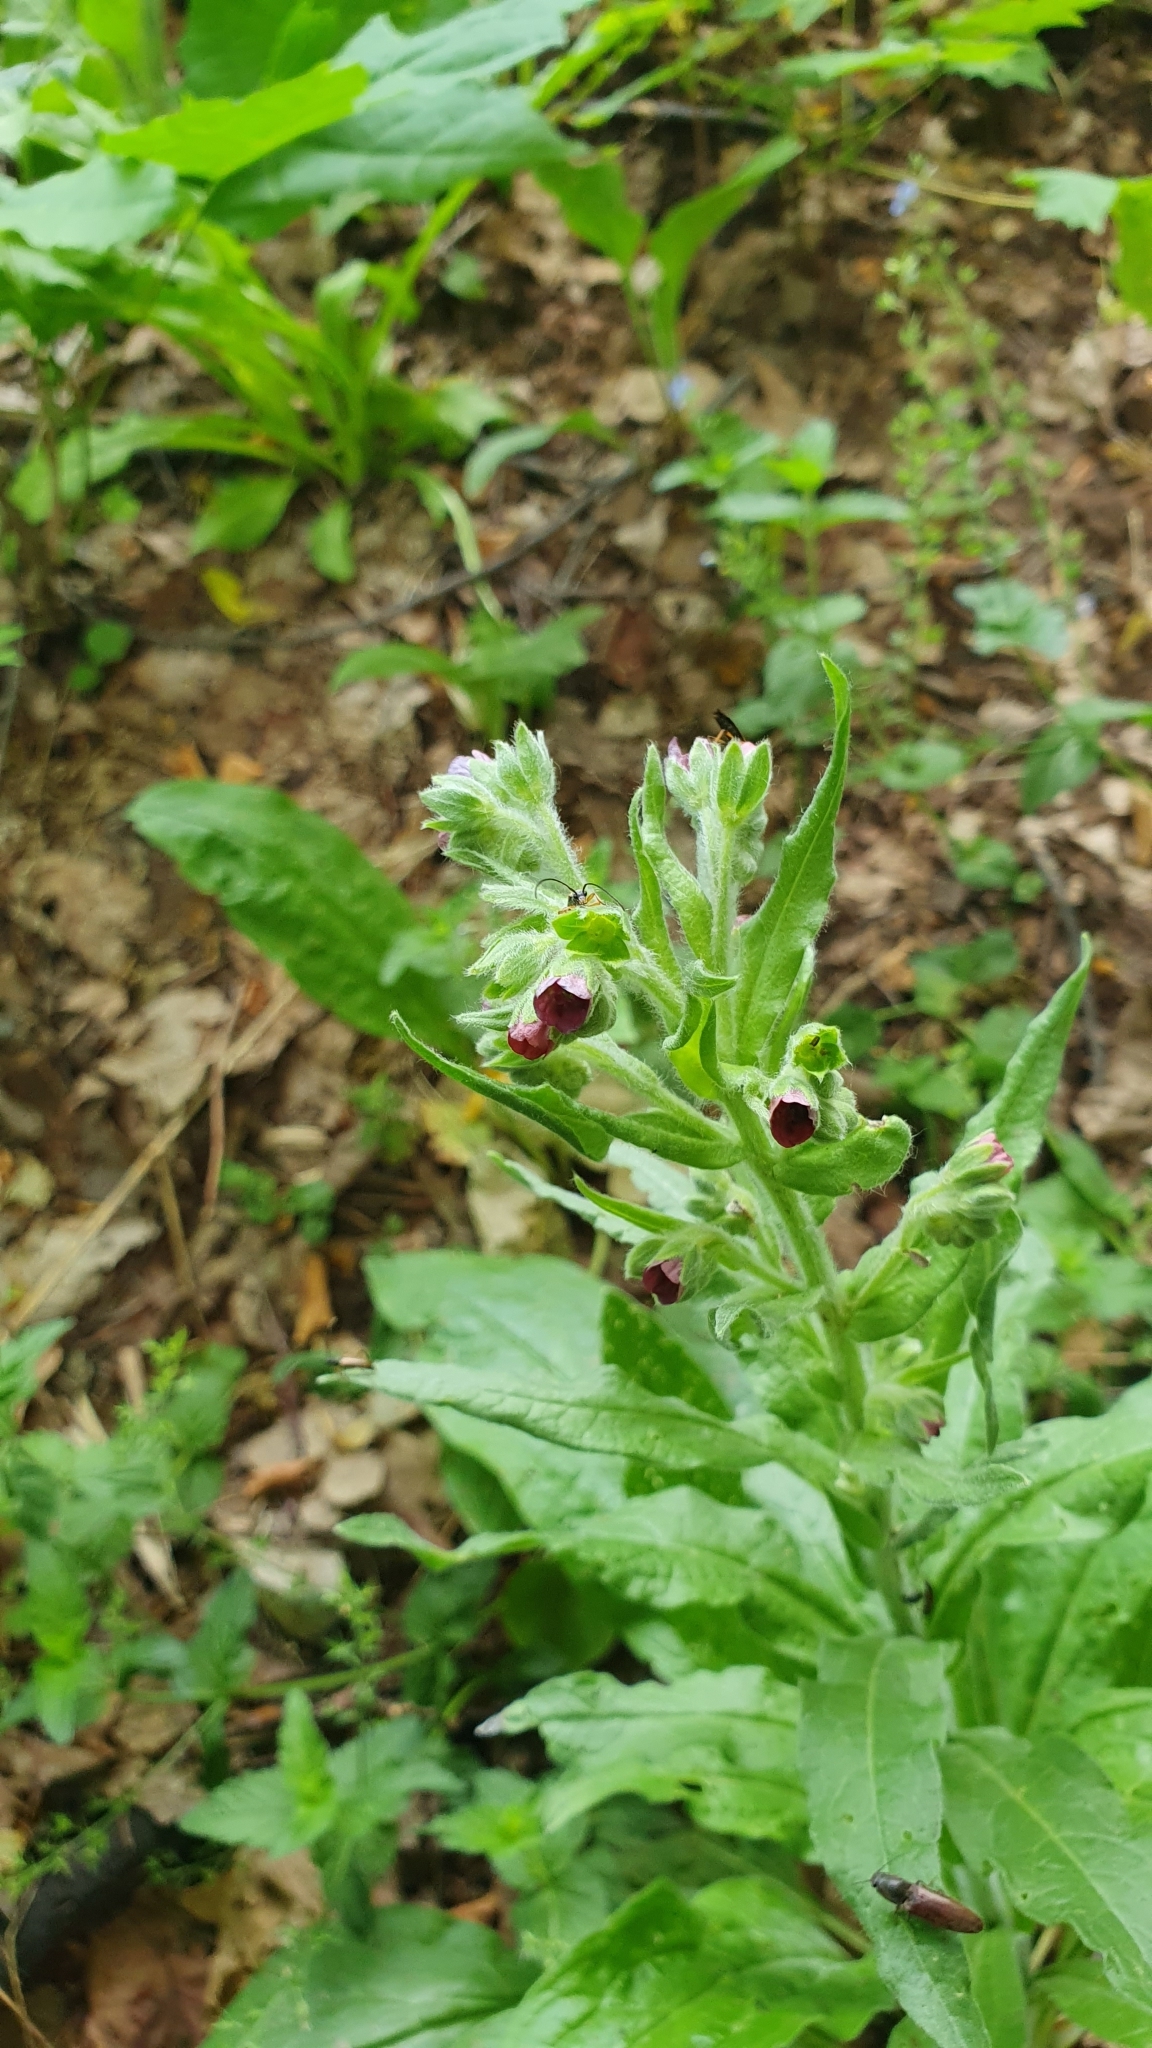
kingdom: Plantae
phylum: Tracheophyta
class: Magnoliopsida
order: Boraginales
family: Boraginaceae
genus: Cynoglossum
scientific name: Cynoglossum officinale
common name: Hound's-tongue
